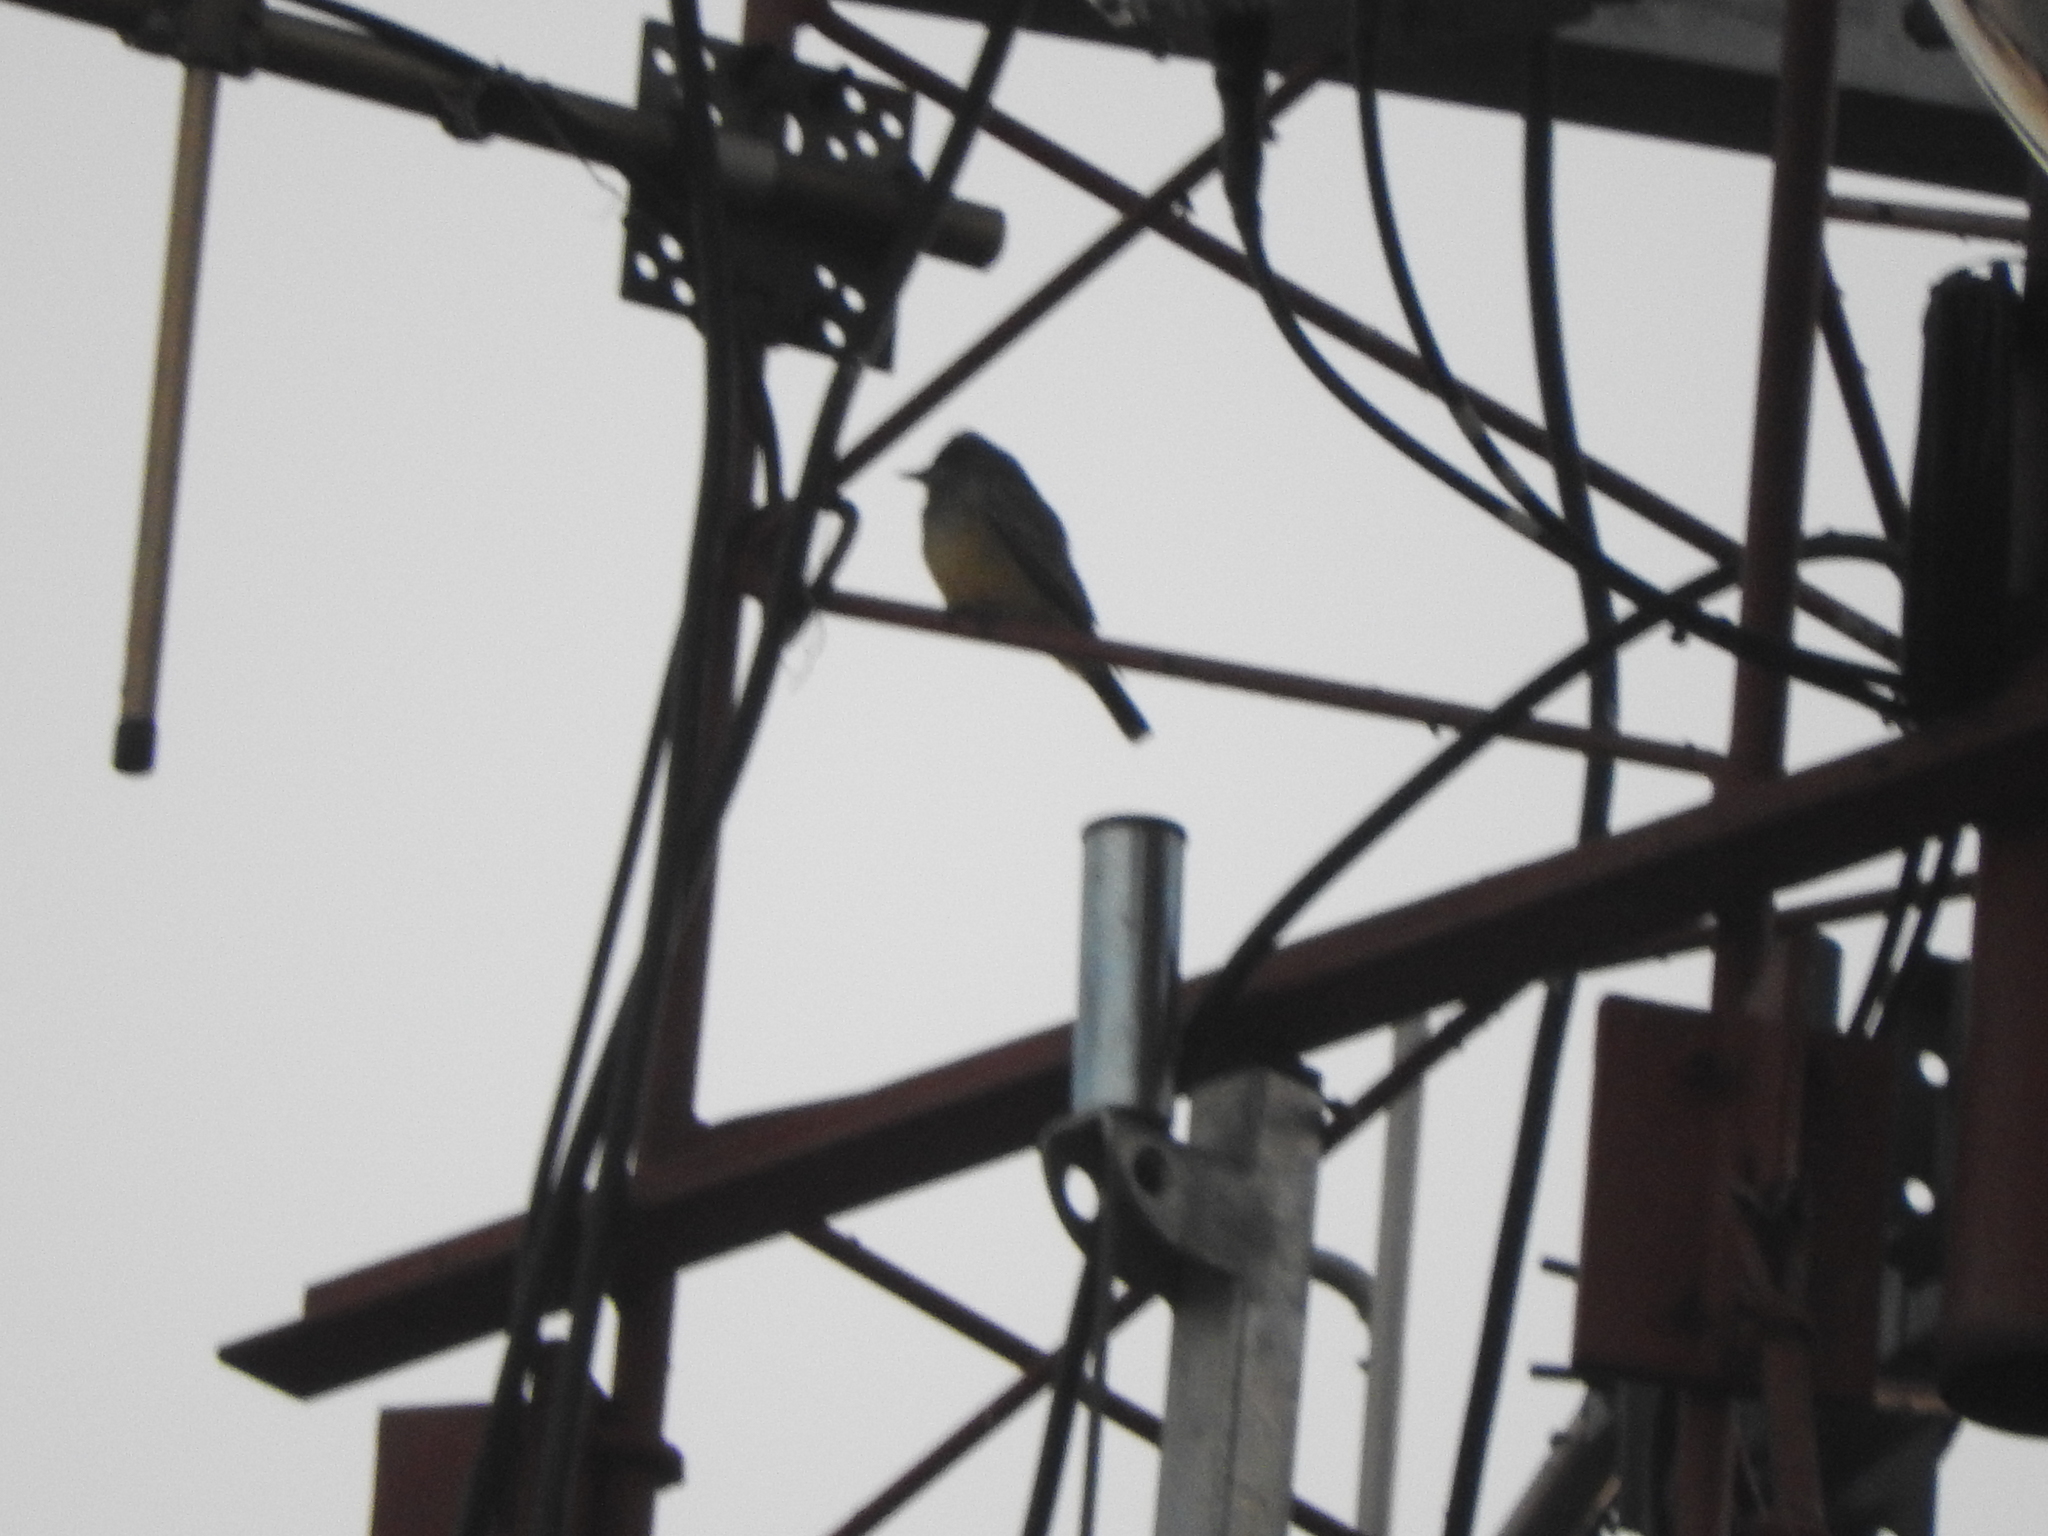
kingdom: Animalia
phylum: Chordata
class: Aves
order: Passeriformes
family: Tyrannidae
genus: Tyrannus
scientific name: Tyrannus vociferans
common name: Cassin's kingbird
